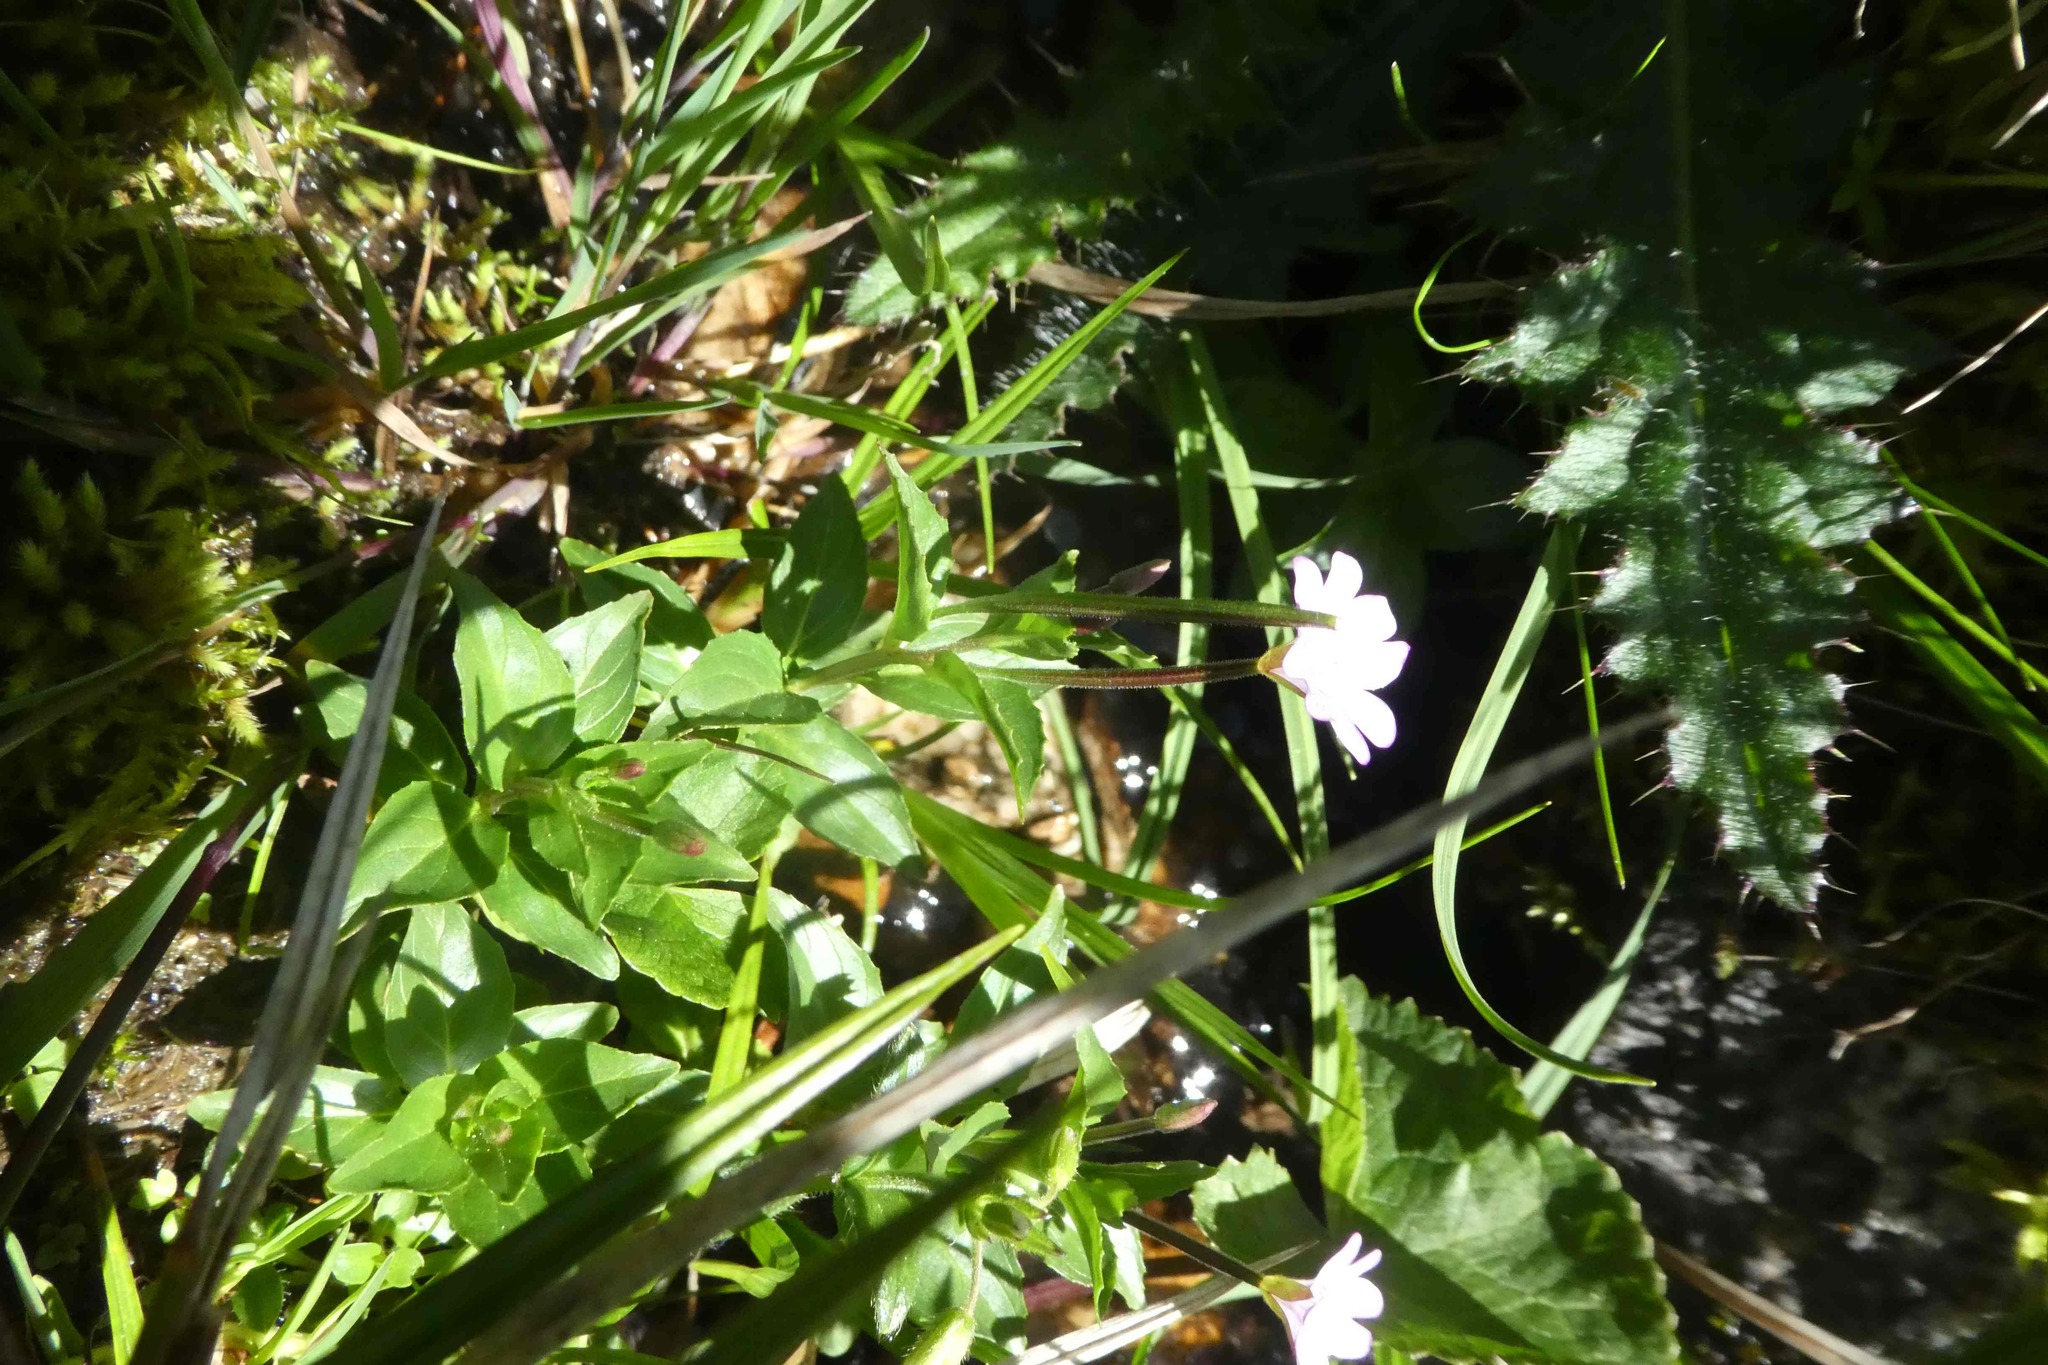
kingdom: Plantae
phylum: Tracheophyta
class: Magnoliopsida
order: Myrtales
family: Onagraceae
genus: Epilobium
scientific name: Epilobium alsinifolium
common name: Chickweed willowherb
